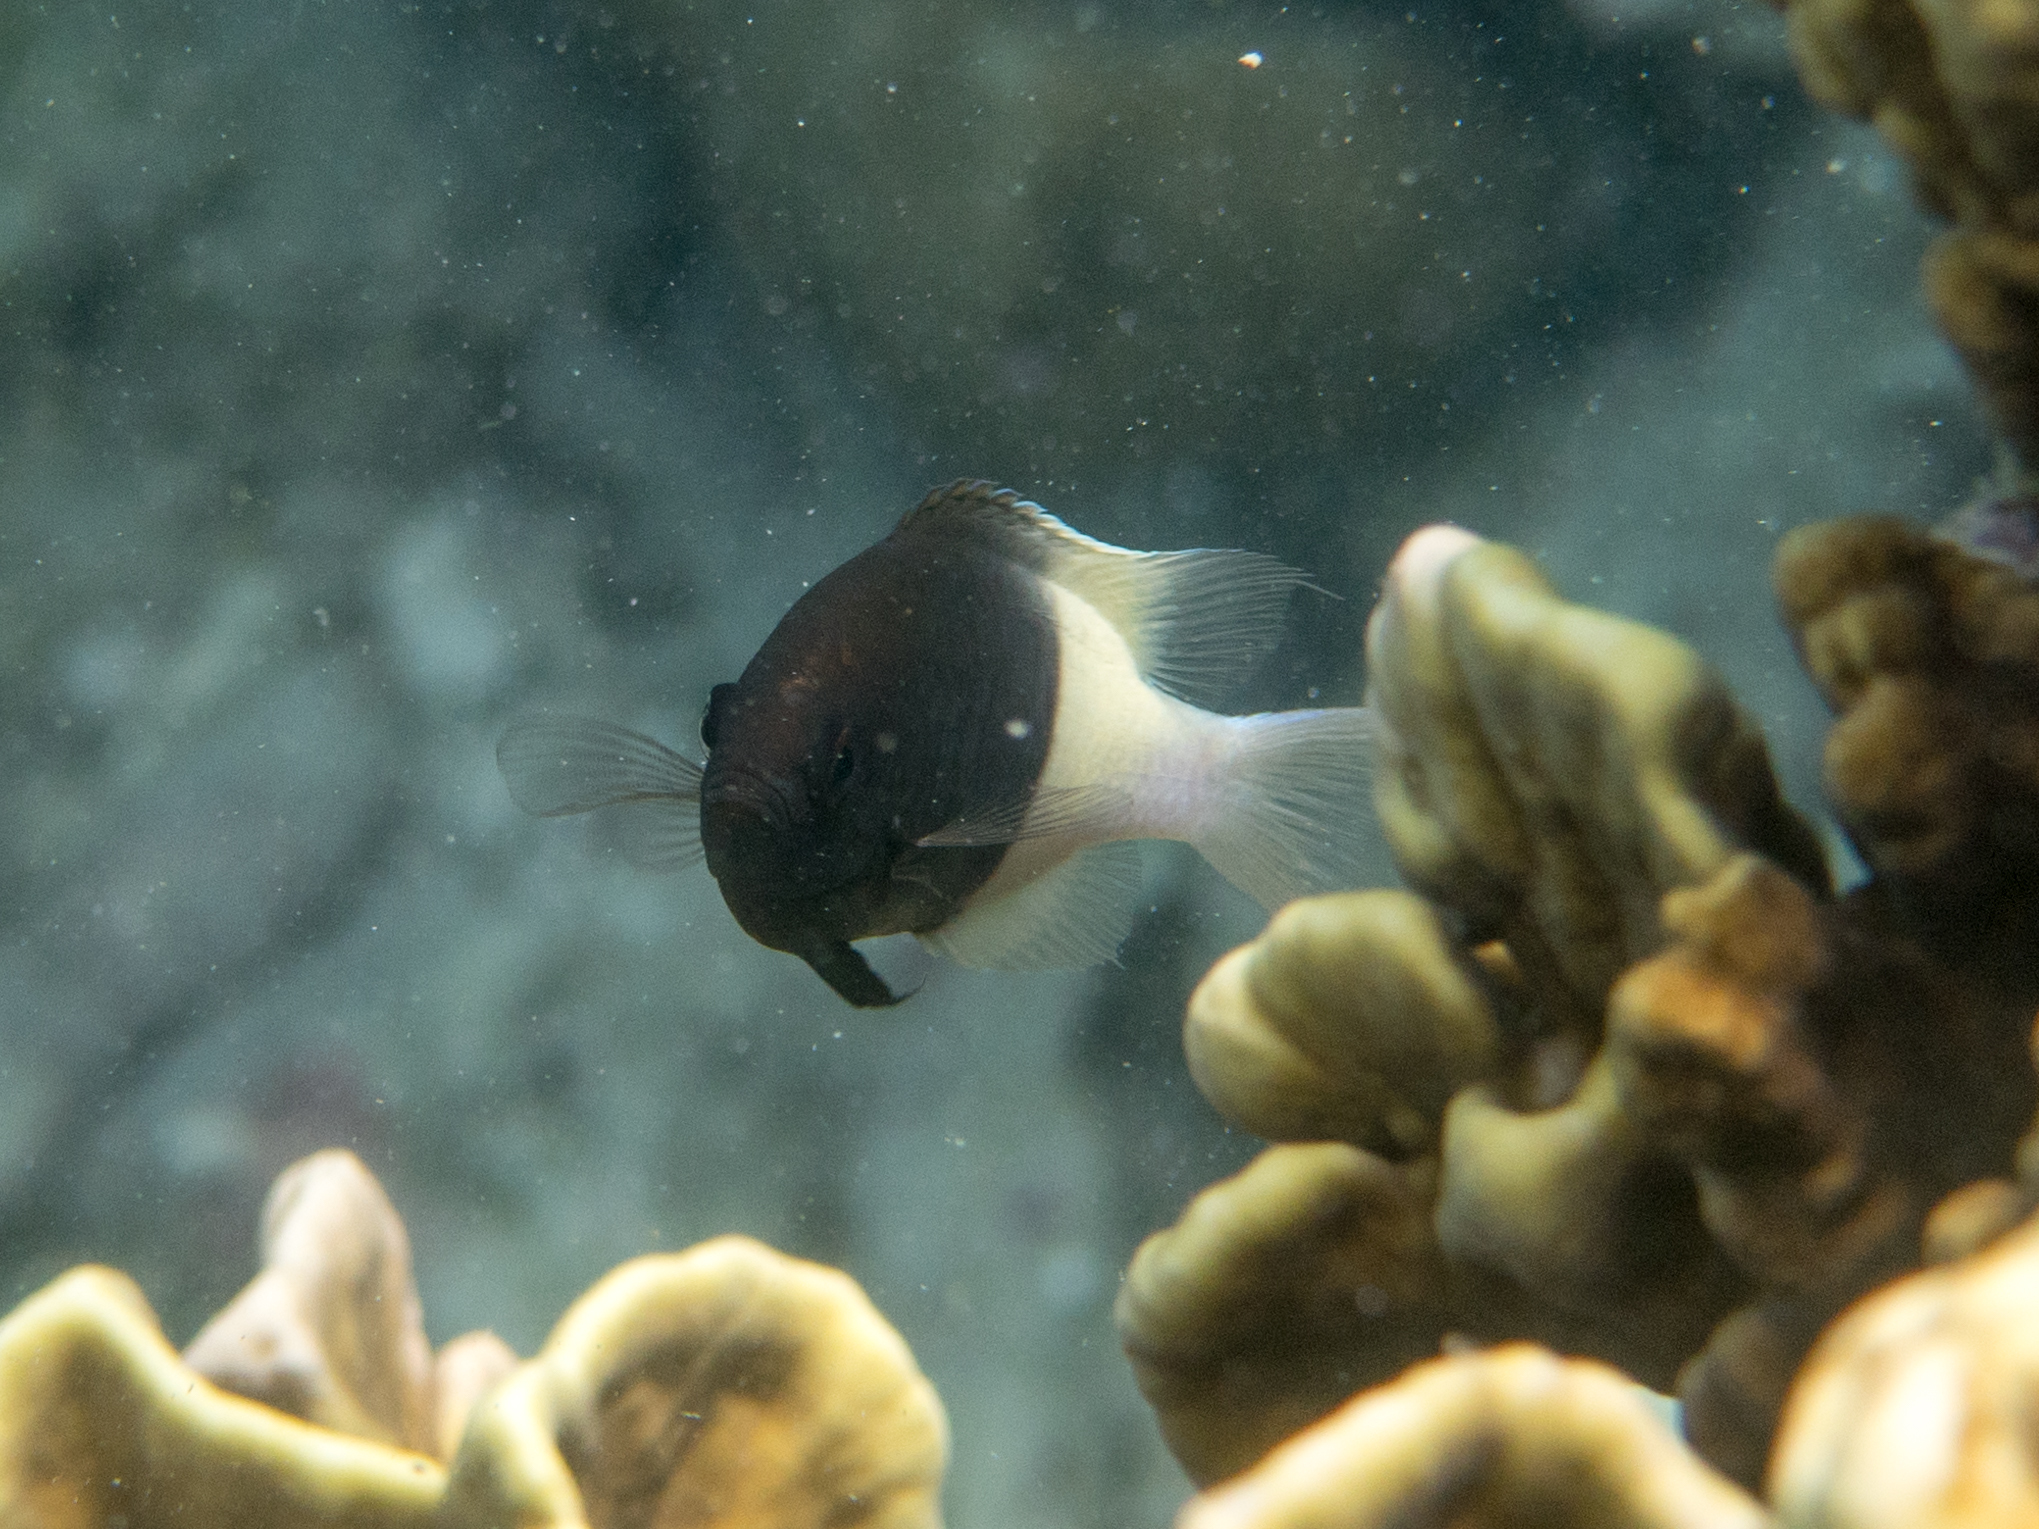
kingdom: Animalia
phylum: Chordata
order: Perciformes
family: Pomacentridae
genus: Chromis
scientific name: Chromis fieldi
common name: Chocolatedip chromis
